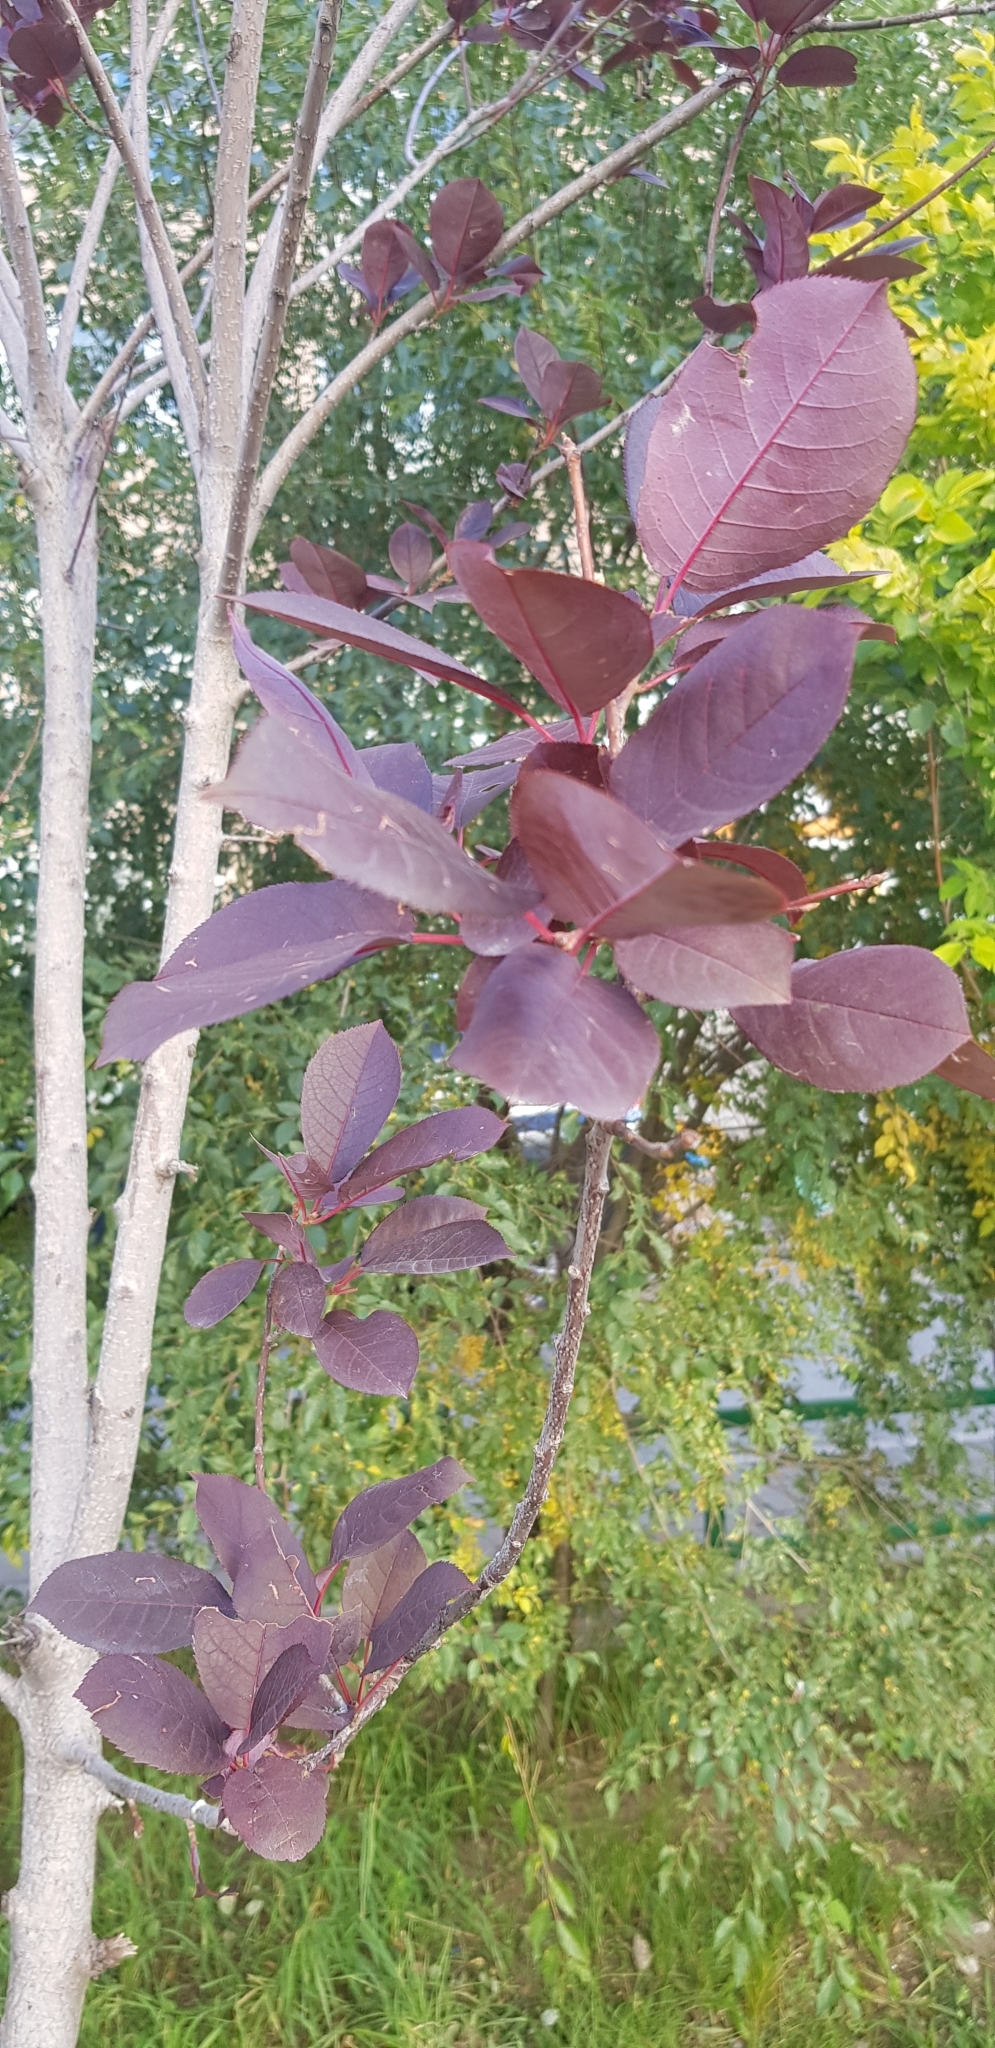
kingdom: Plantae
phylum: Tracheophyta
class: Magnoliopsida
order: Rosales
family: Rosaceae
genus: Prunus
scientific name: Prunus padus
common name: Bird cherry
